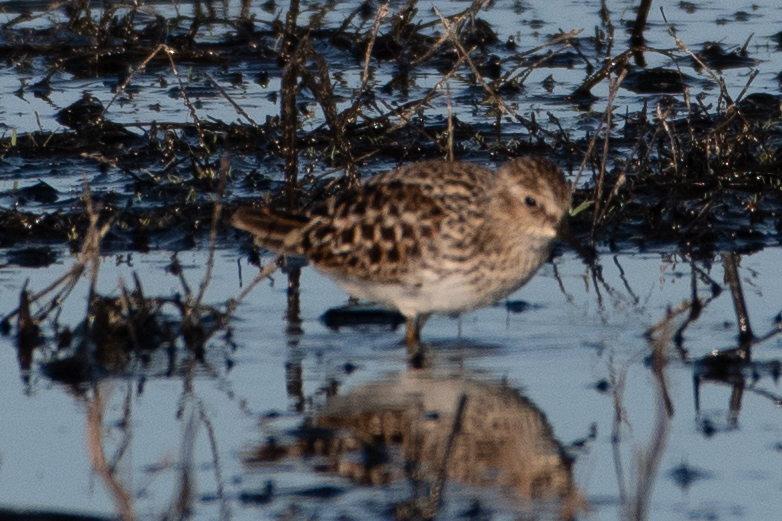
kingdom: Animalia
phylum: Chordata
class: Aves
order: Charadriiformes
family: Scolopacidae
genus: Calidris
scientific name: Calidris minutilla
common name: Least sandpiper
